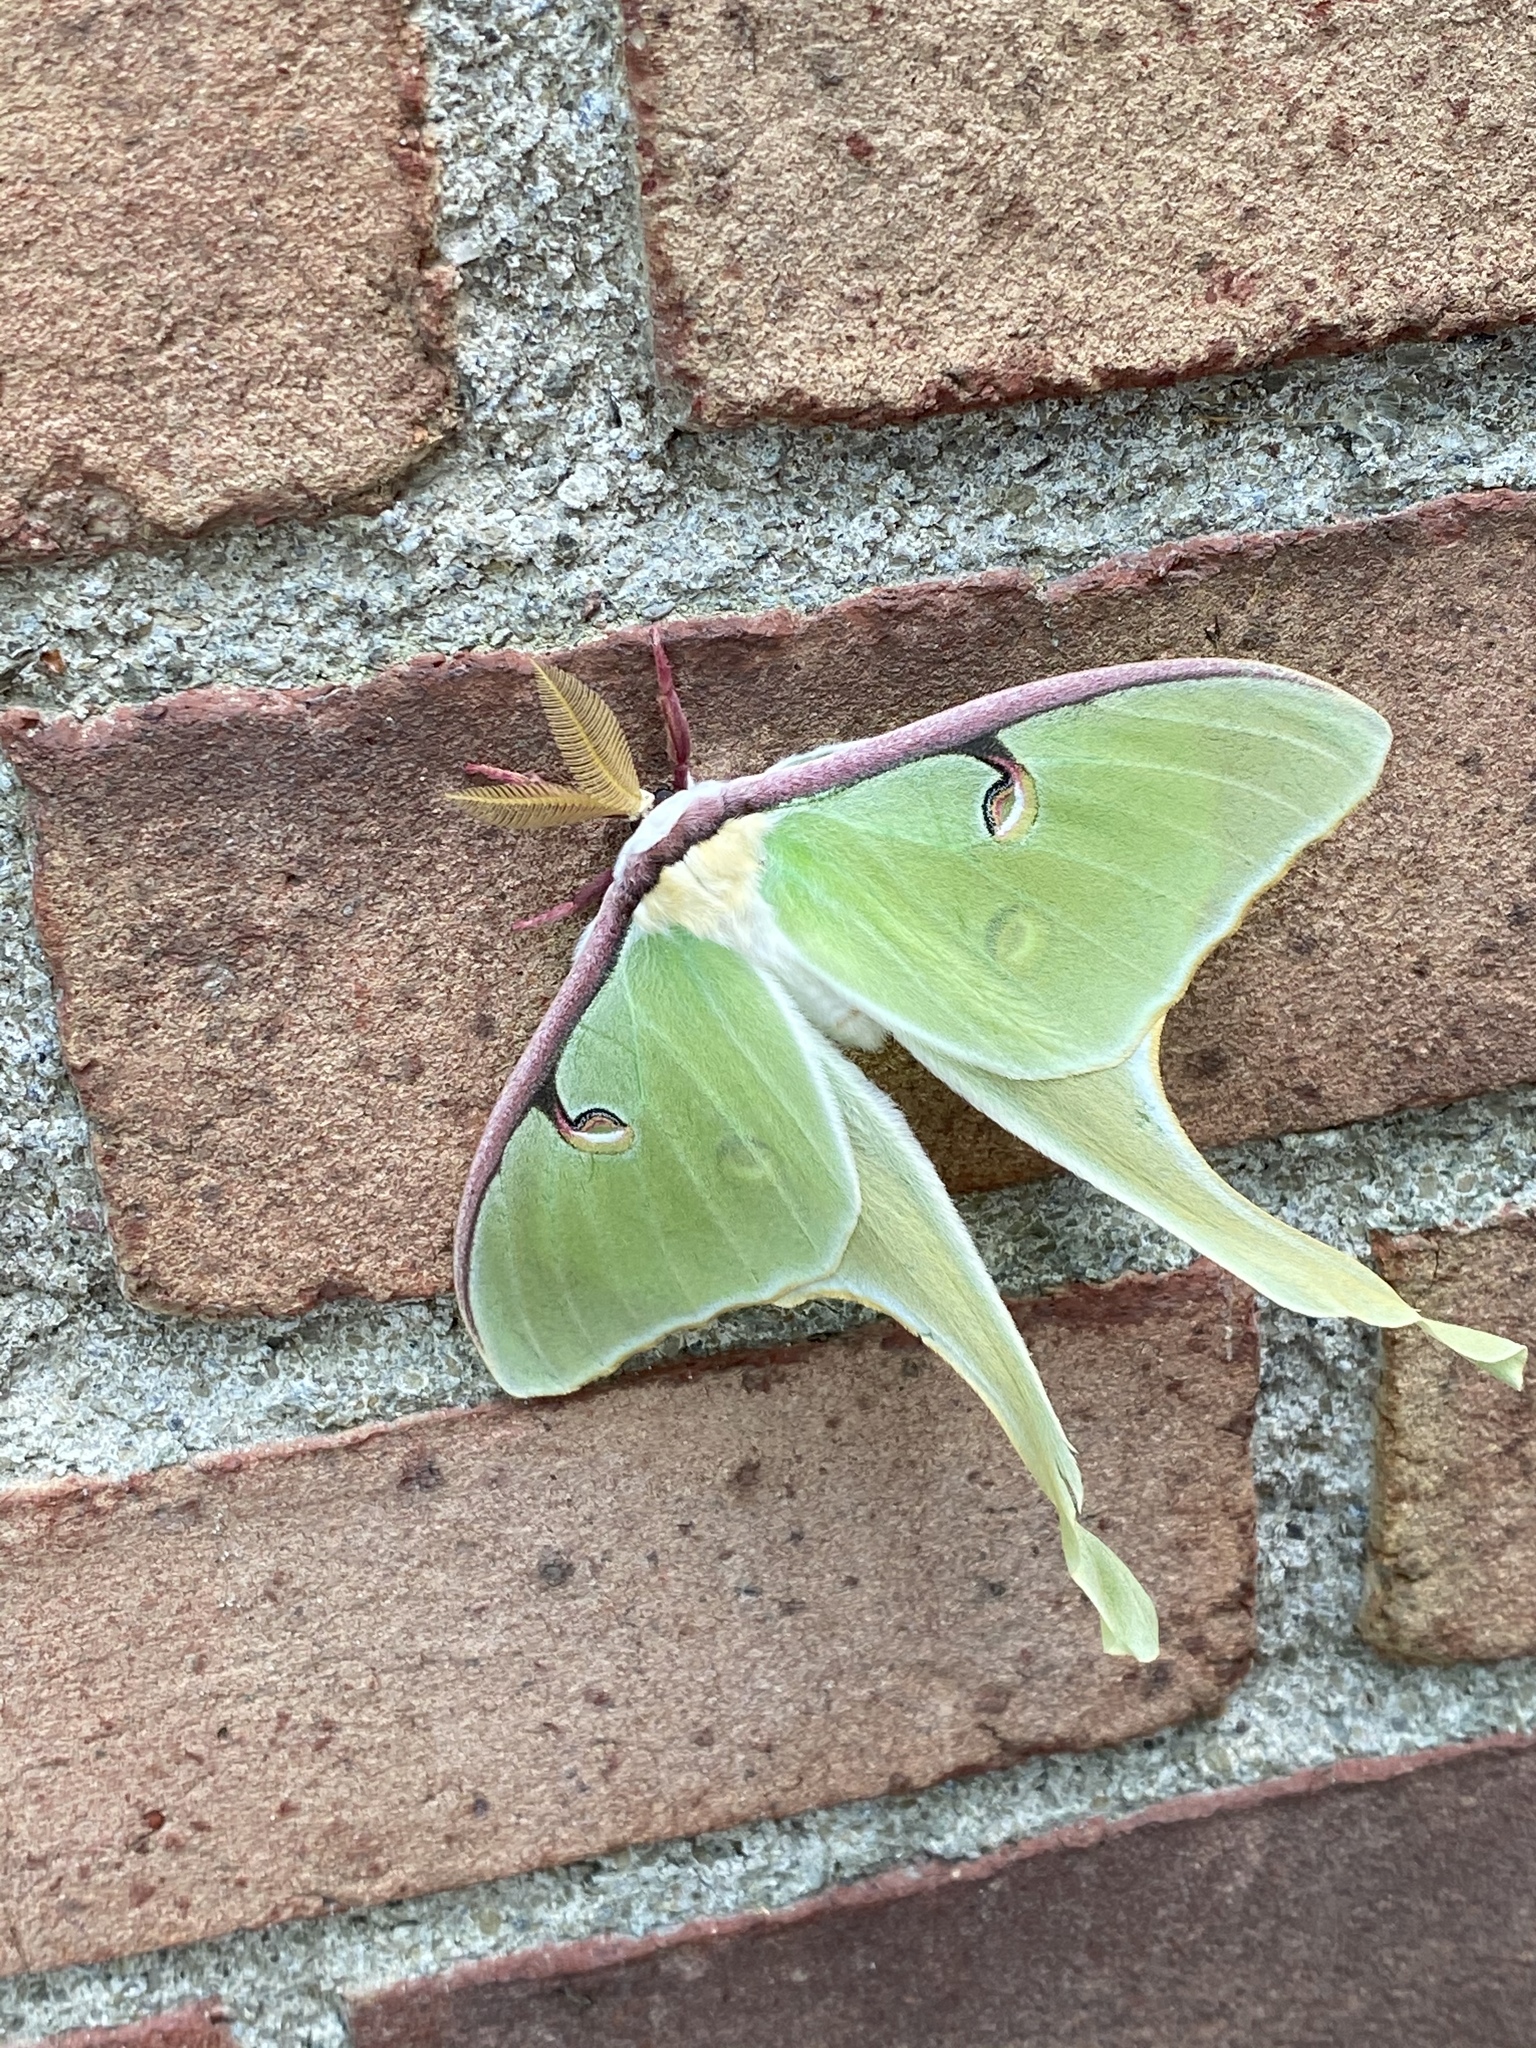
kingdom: Animalia
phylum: Arthropoda
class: Insecta
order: Lepidoptera
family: Saturniidae
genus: Actias
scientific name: Actias luna
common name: Luna moth
